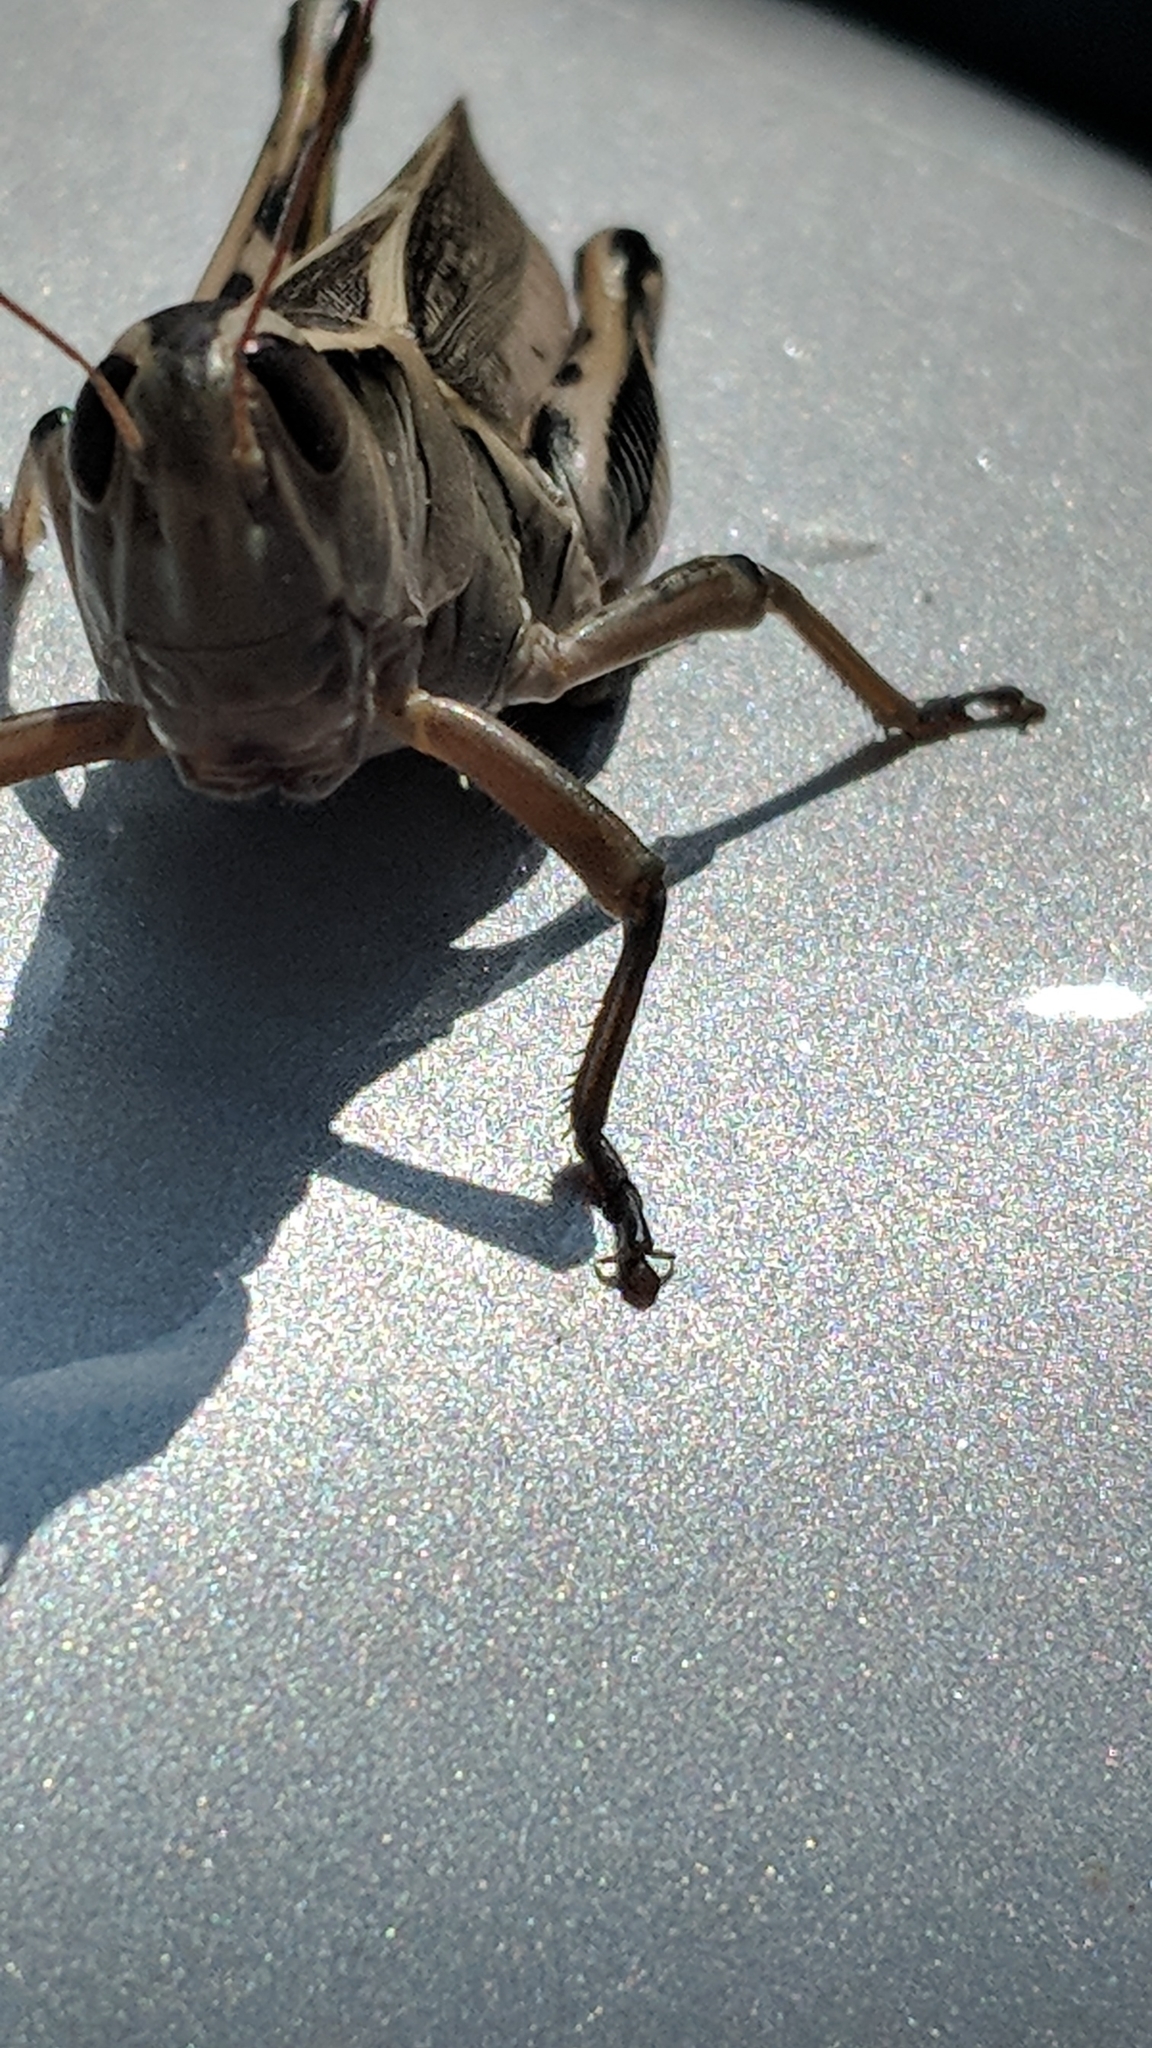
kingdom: Animalia
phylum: Arthropoda
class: Insecta
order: Orthoptera
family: Acrididae
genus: Melanoplus
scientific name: Melanoplus bivittatus
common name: Two-striped grasshopper
